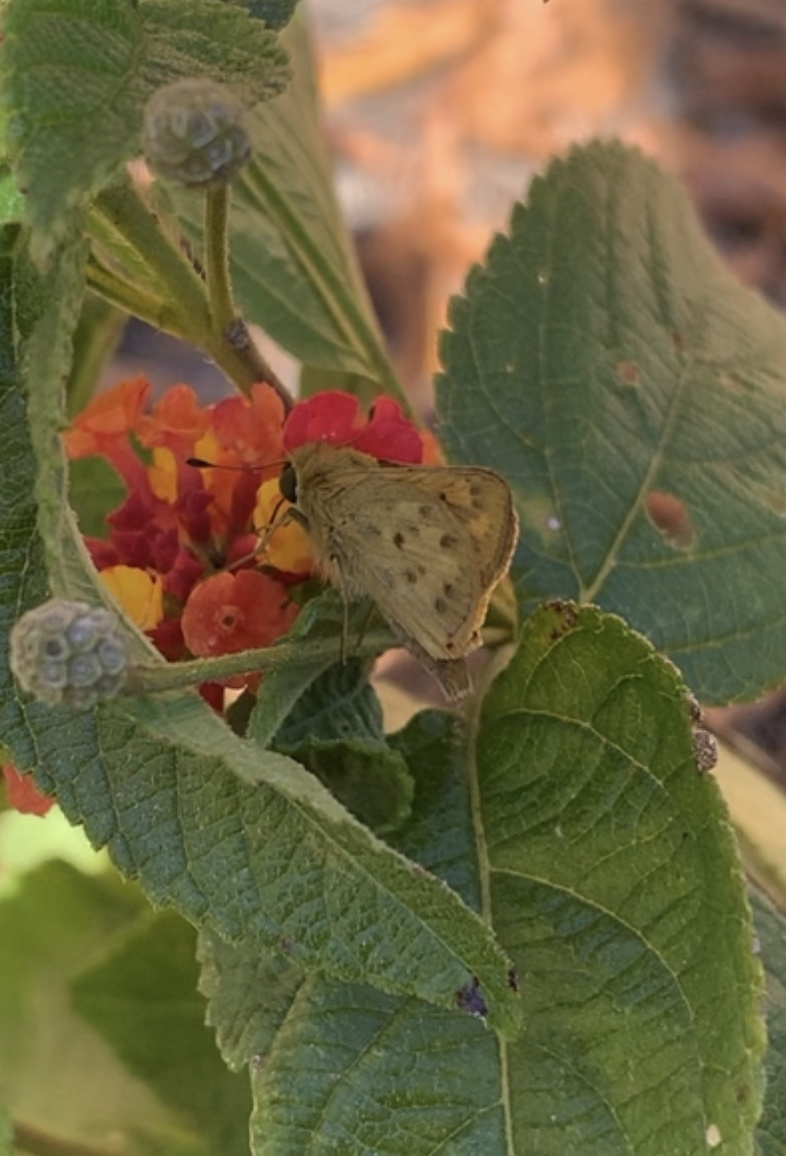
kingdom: Animalia
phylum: Arthropoda
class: Insecta
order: Lepidoptera
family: Hesperiidae
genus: Hylephila
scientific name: Hylephila phyleus
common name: Fiery skipper
